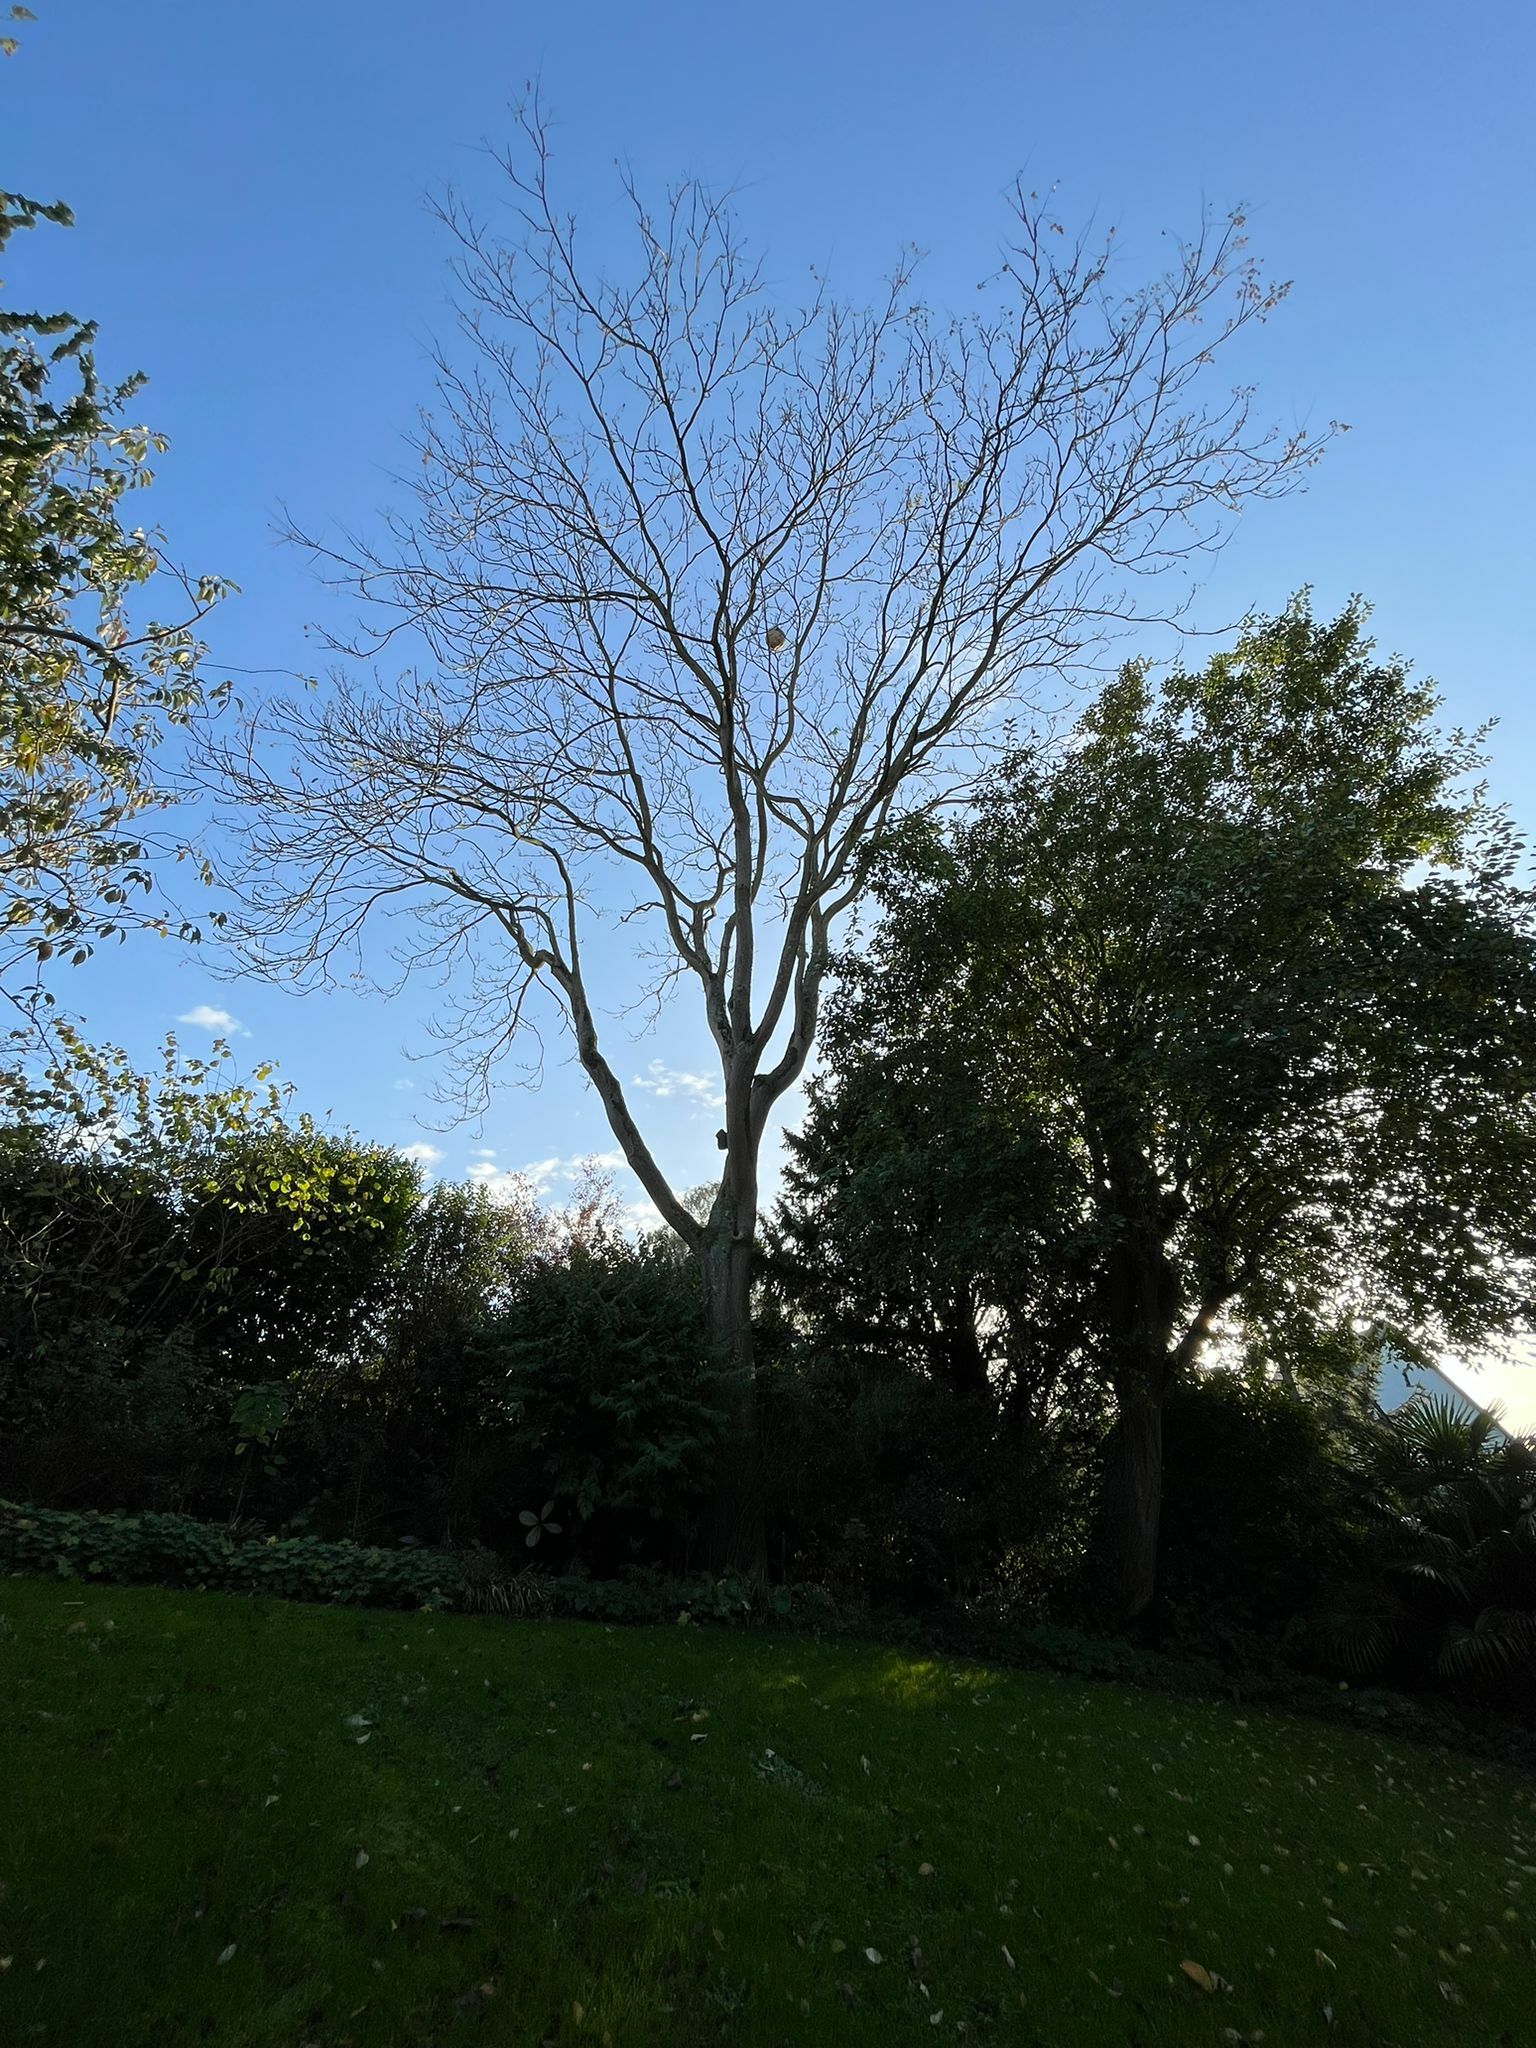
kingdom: Animalia
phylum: Arthropoda
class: Insecta
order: Hymenoptera
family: Vespidae
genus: Vespa
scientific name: Vespa velutina
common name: Asian hornet
